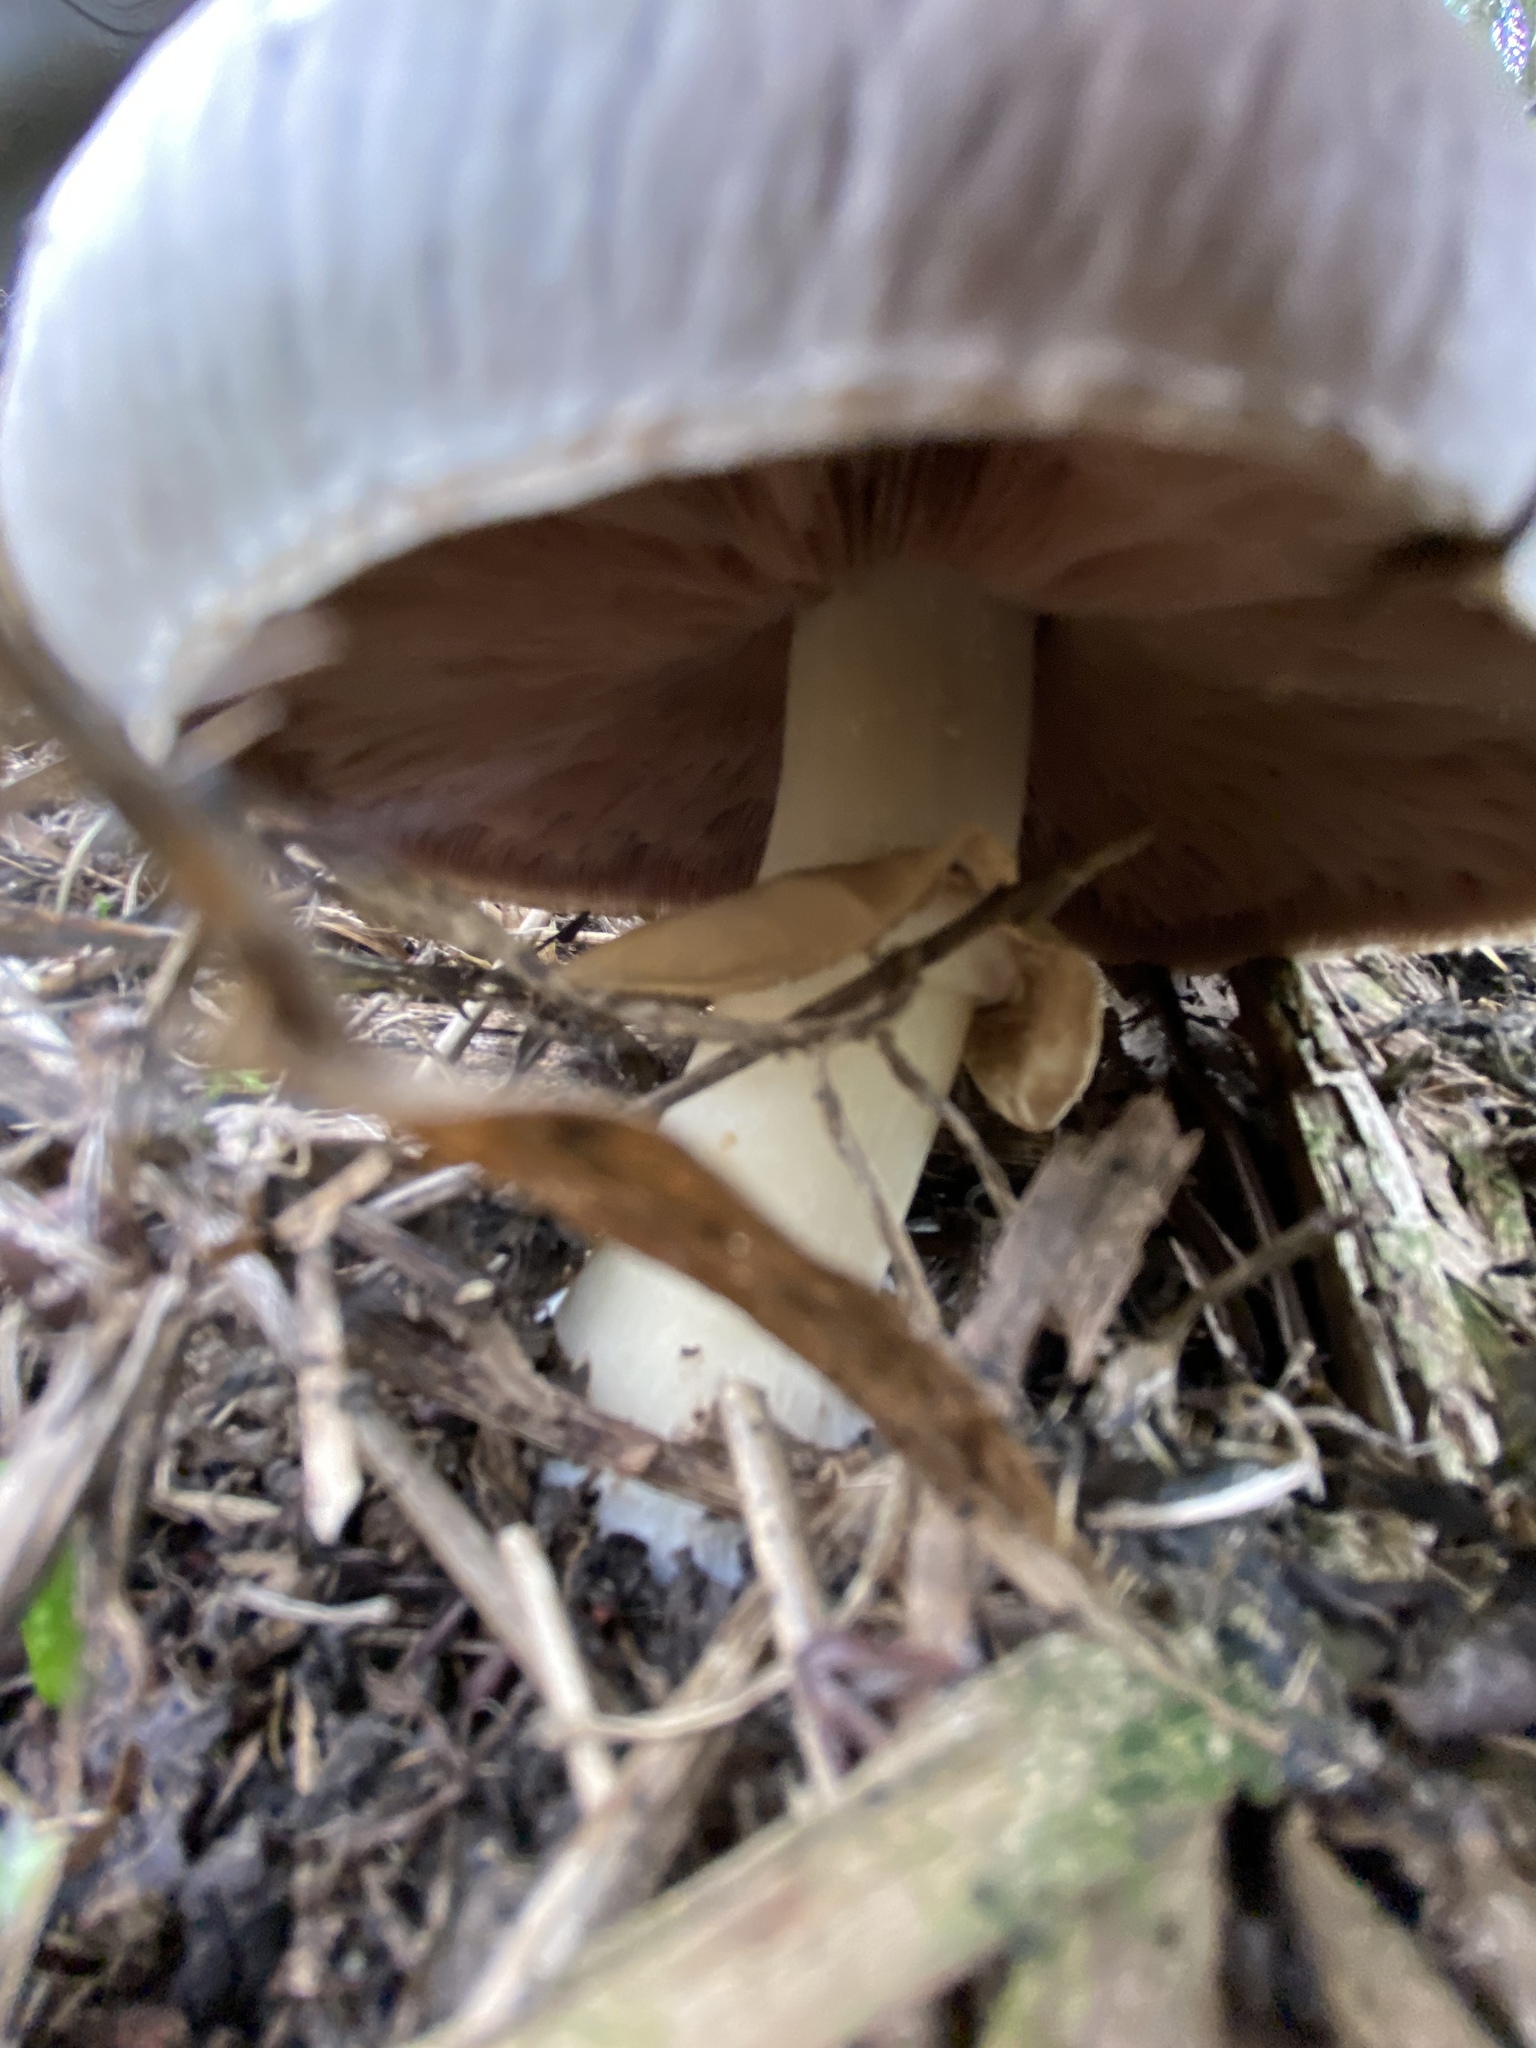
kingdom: Fungi
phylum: Basidiomycota
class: Agaricomycetes
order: Agaricales
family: Agaricaceae
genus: Agaricus
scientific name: Agaricus campestris
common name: Field mushroom
